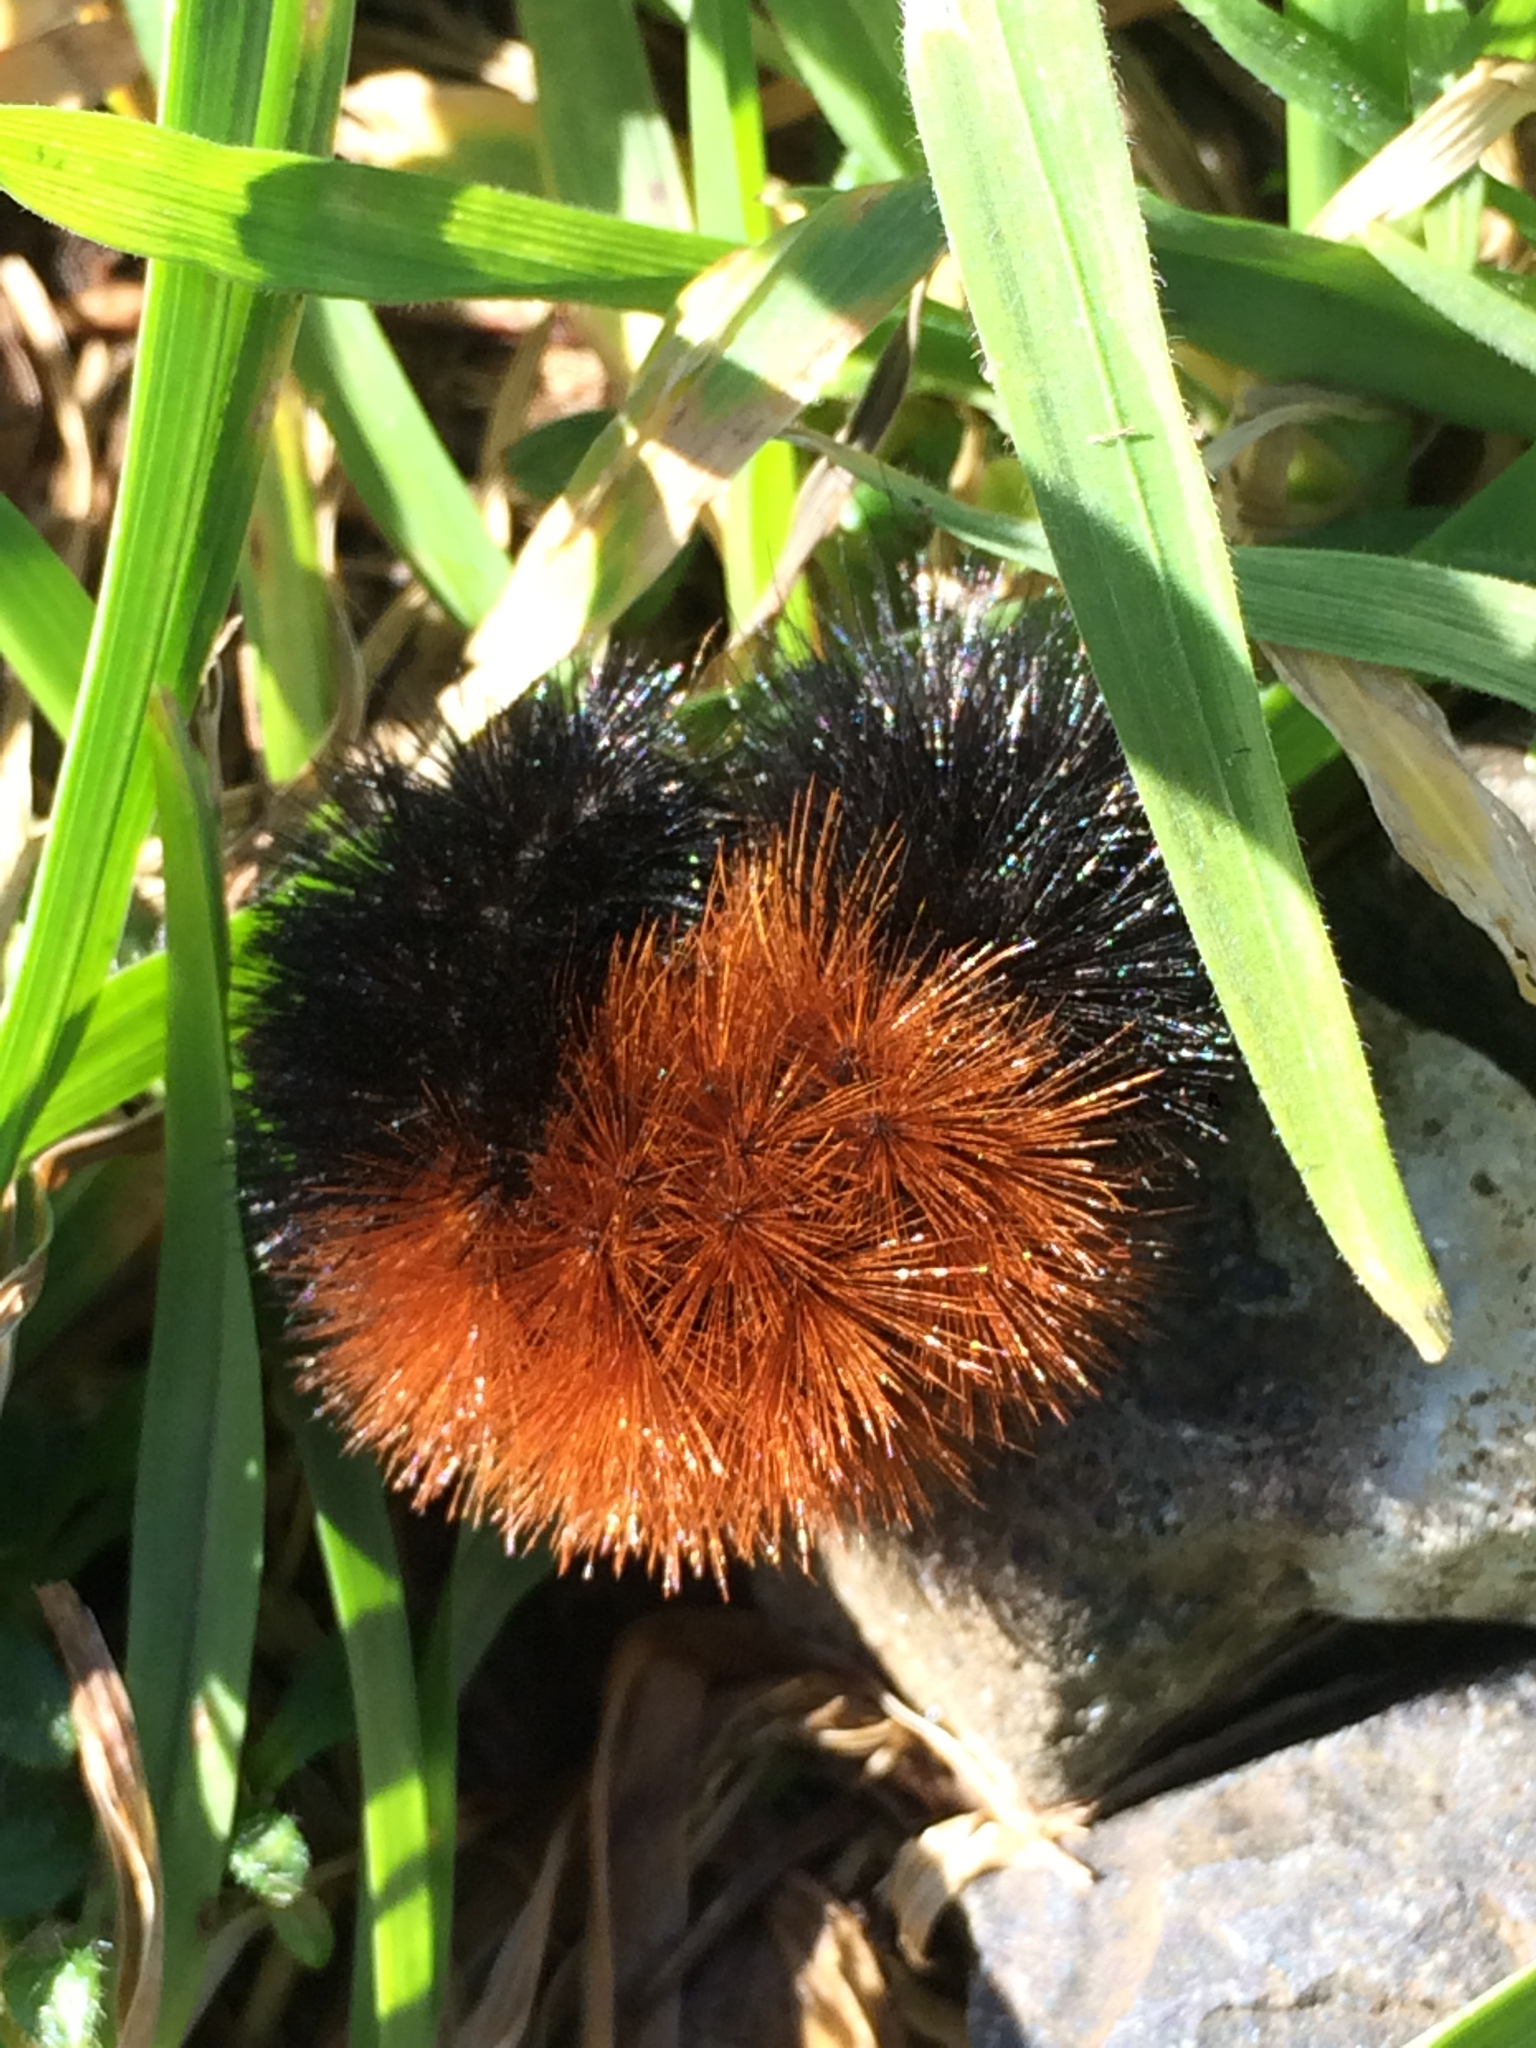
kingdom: Animalia
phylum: Arthropoda
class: Insecta
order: Lepidoptera
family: Erebidae
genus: Pyrrharctia
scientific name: Pyrrharctia isabella
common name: Isabella tiger moth
